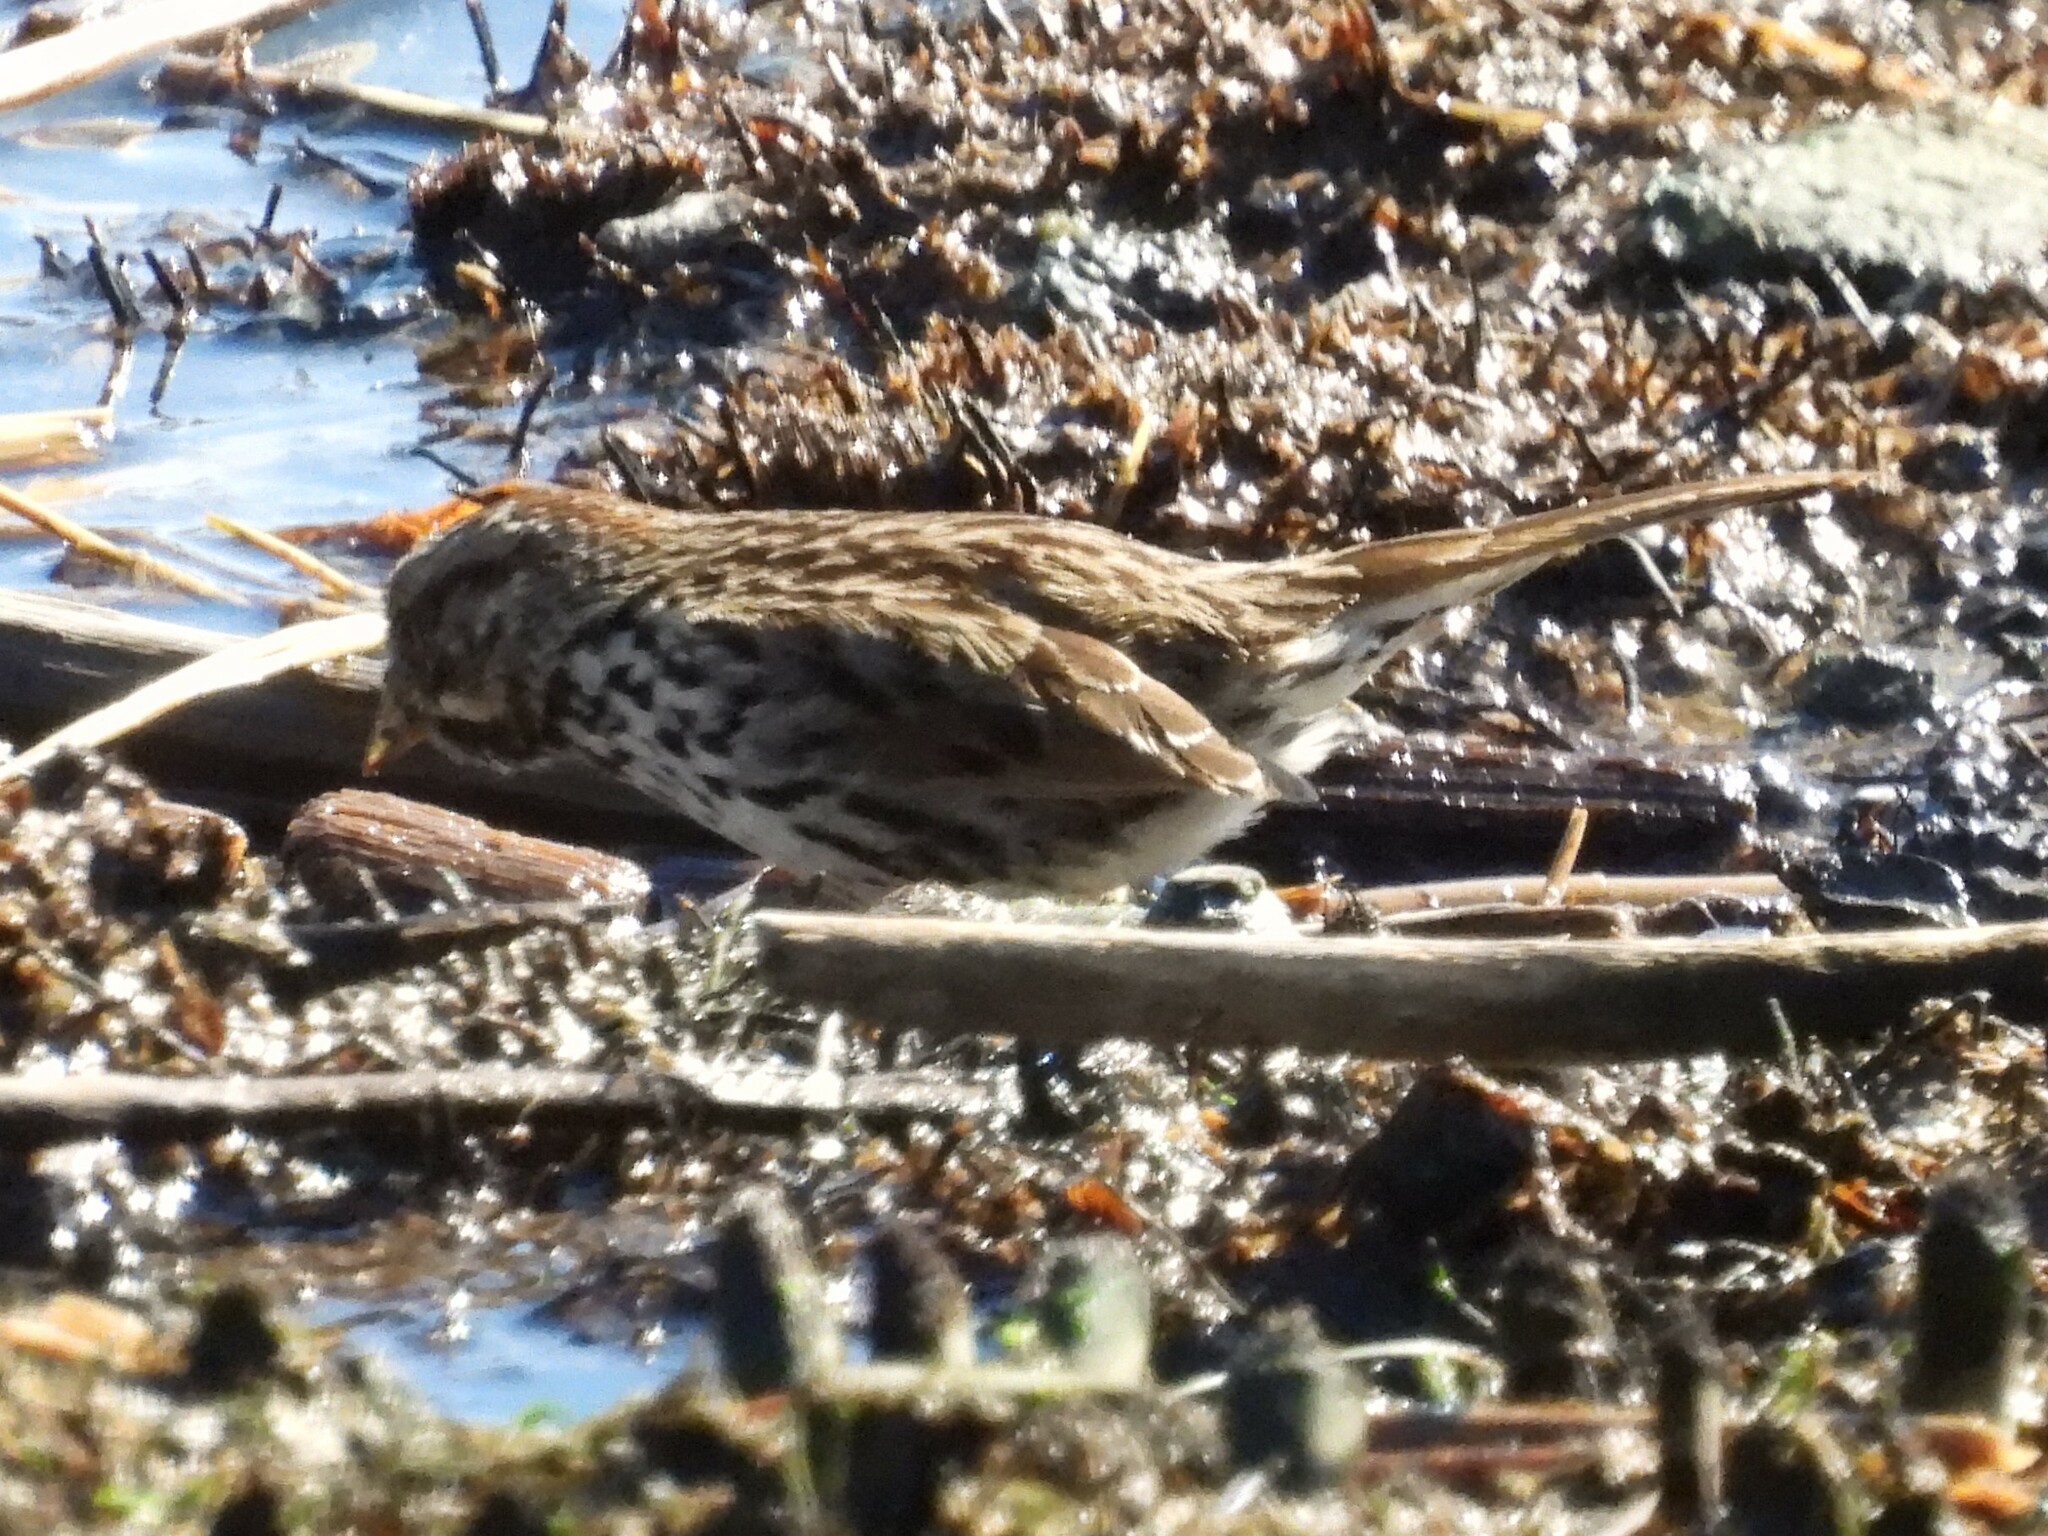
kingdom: Animalia
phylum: Chordata
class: Aves
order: Passeriformes
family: Passerellidae
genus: Melospiza
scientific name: Melospiza melodia
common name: Song sparrow
